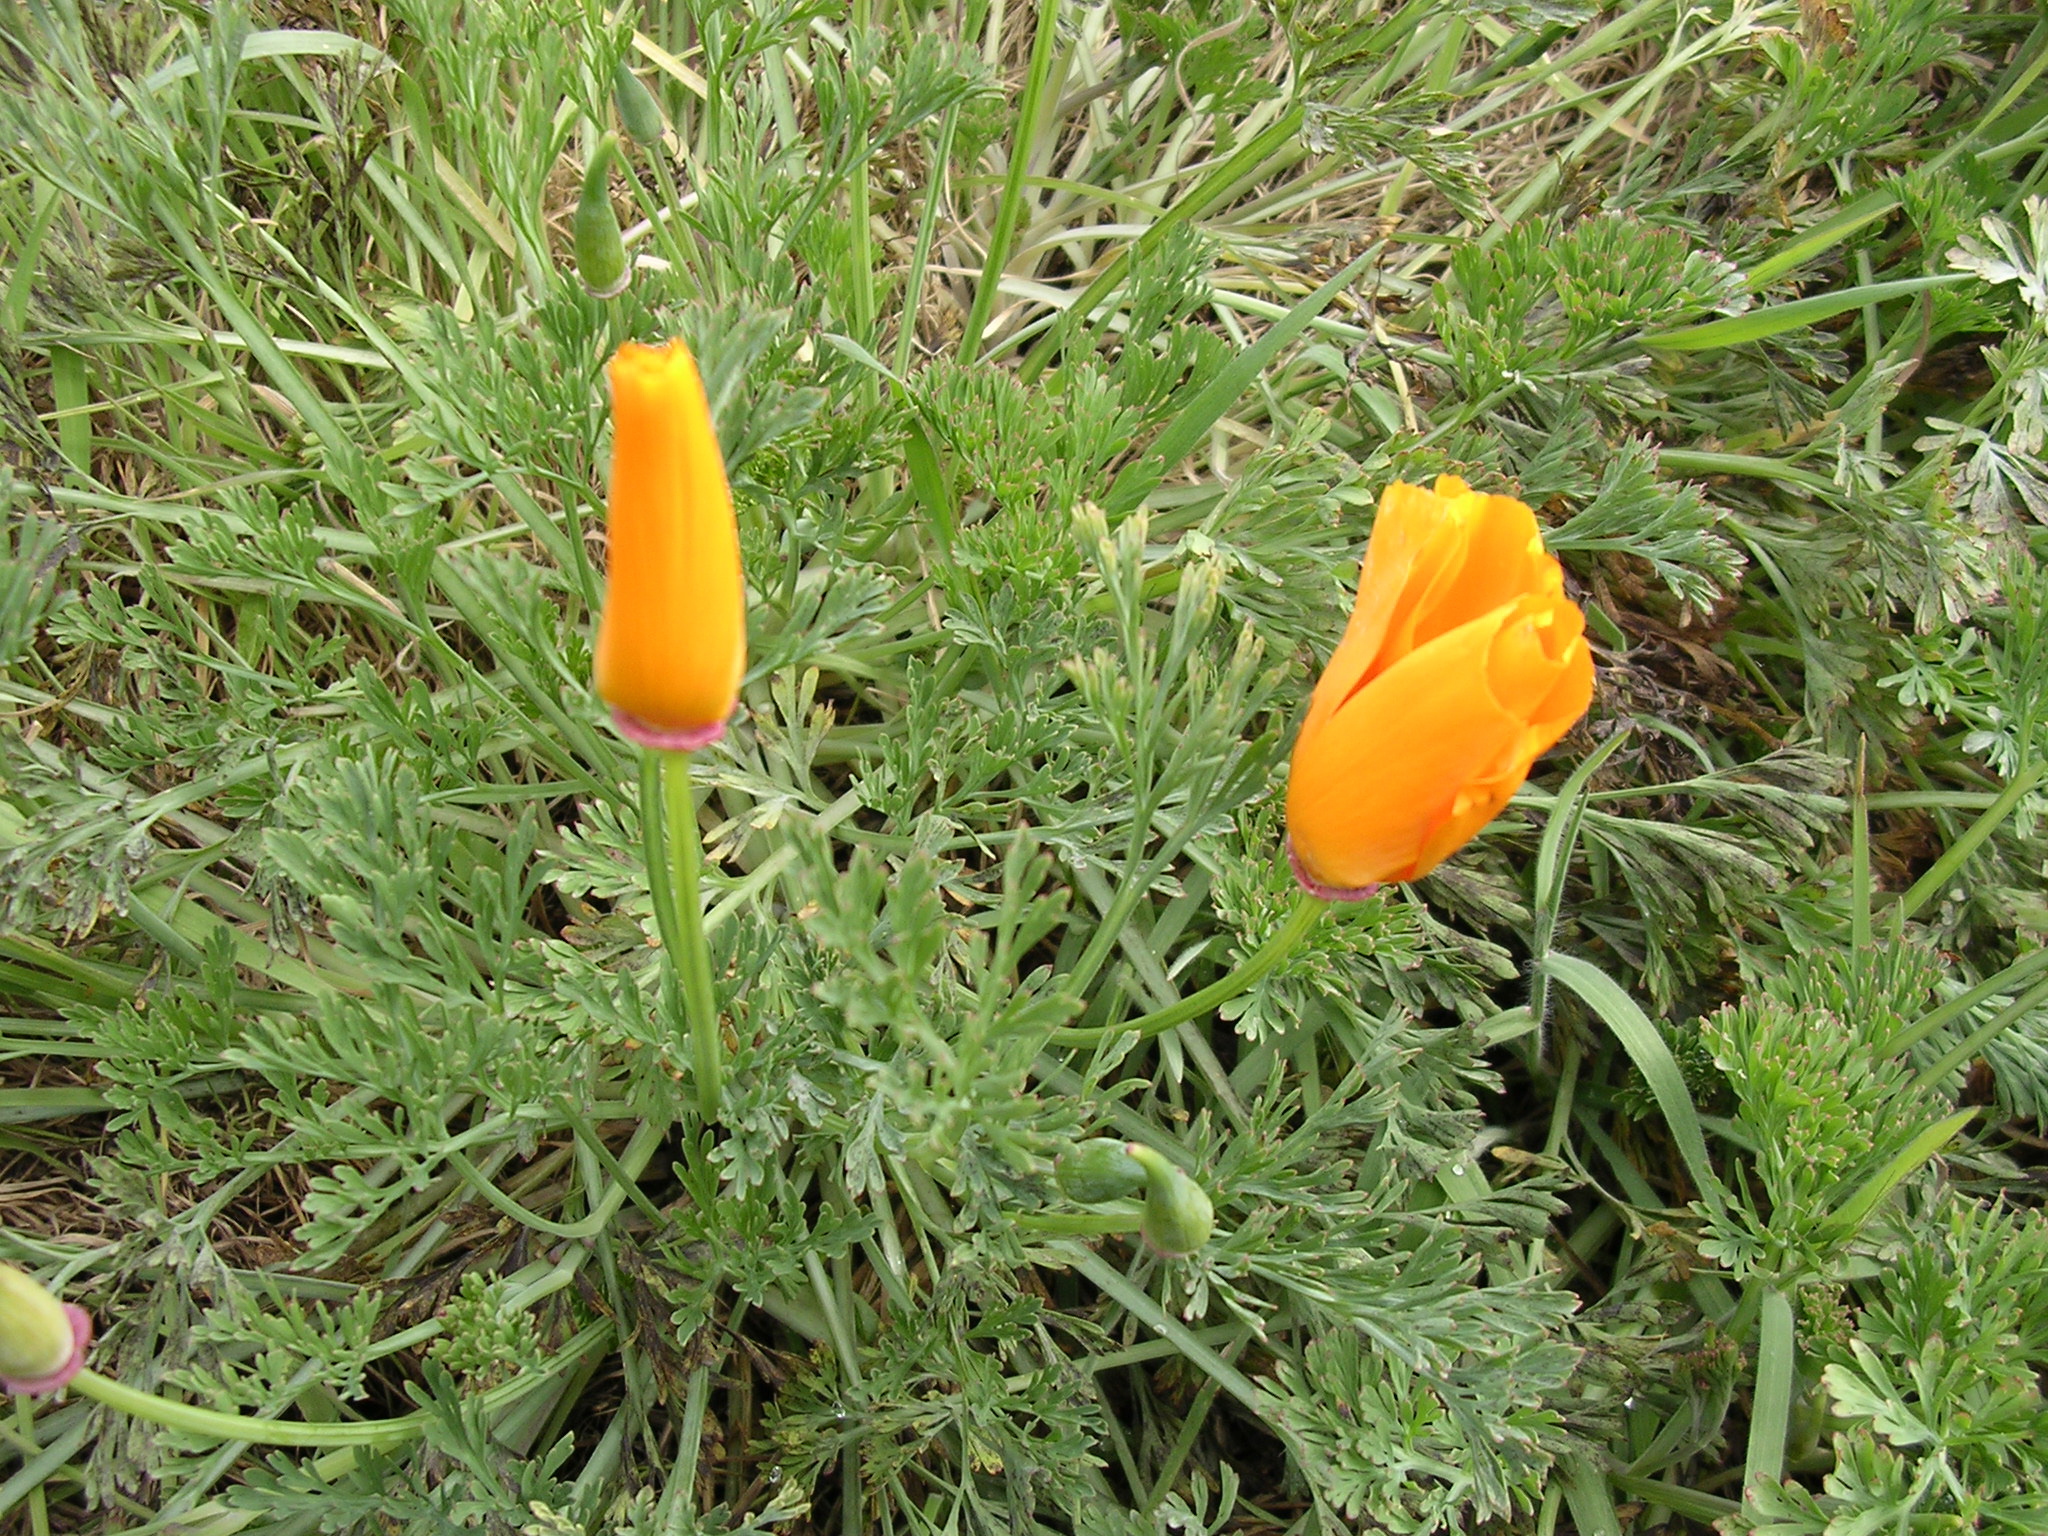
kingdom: Plantae
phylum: Tracheophyta
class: Magnoliopsida
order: Ranunculales
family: Papaveraceae
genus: Eschscholzia
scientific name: Eschscholzia californica
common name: California poppy
